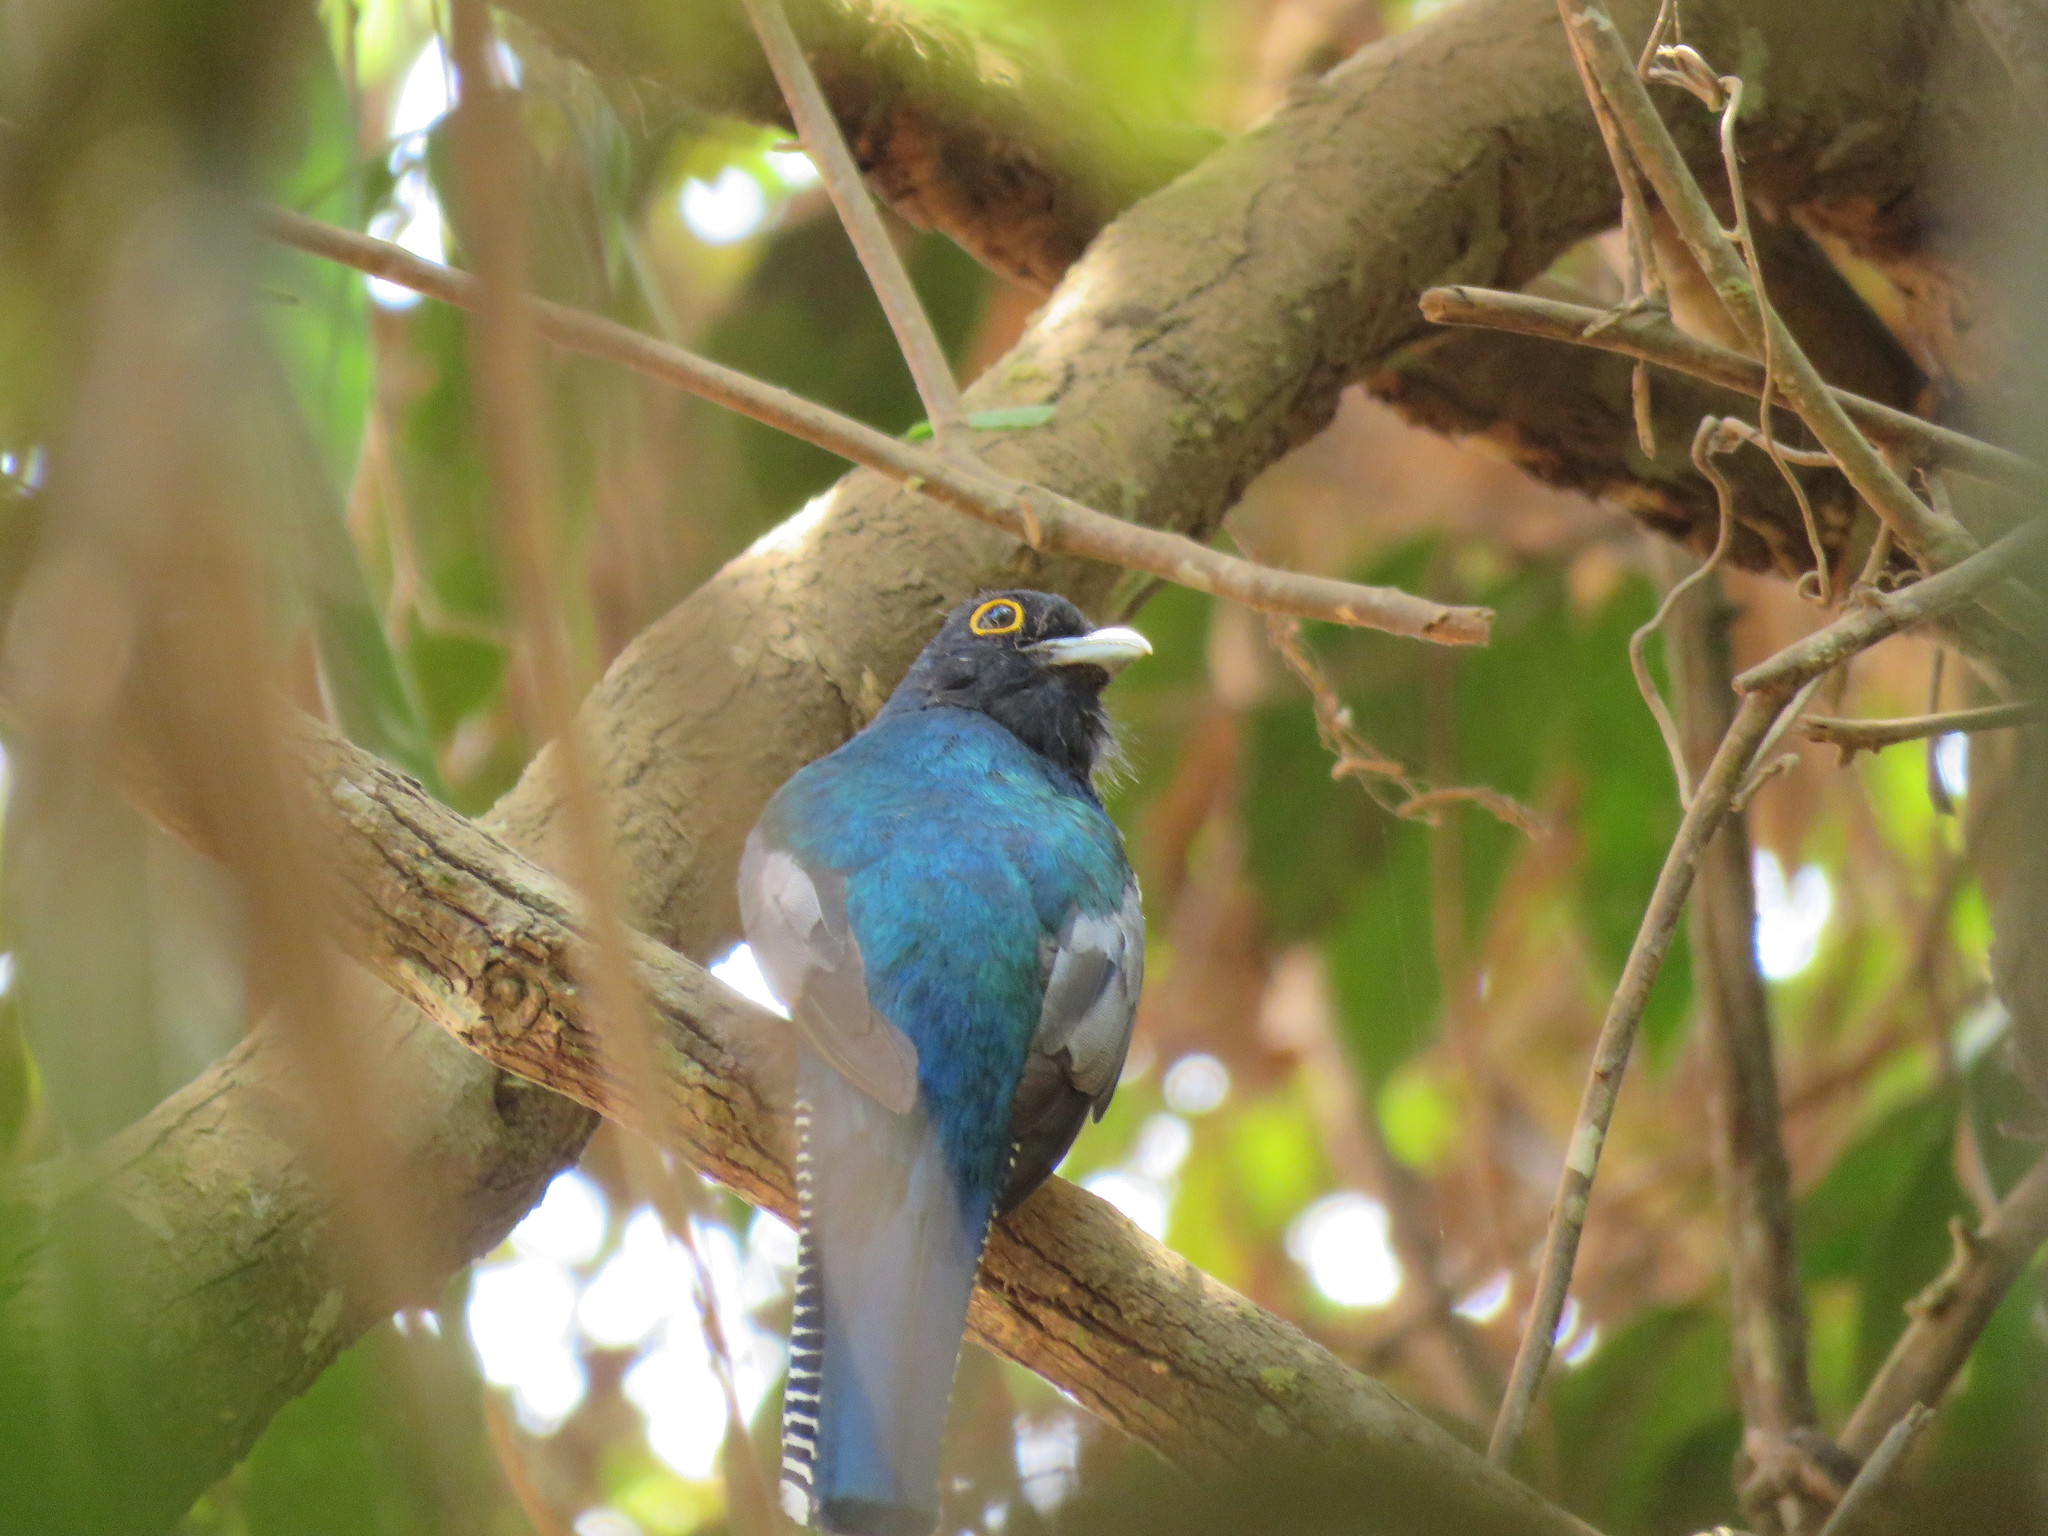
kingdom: Animalia
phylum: Chordata
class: Aves
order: Trogoniformes
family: Trogonidae
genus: Trogon
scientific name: Trogon ramonianus
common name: Amazonian trogon
